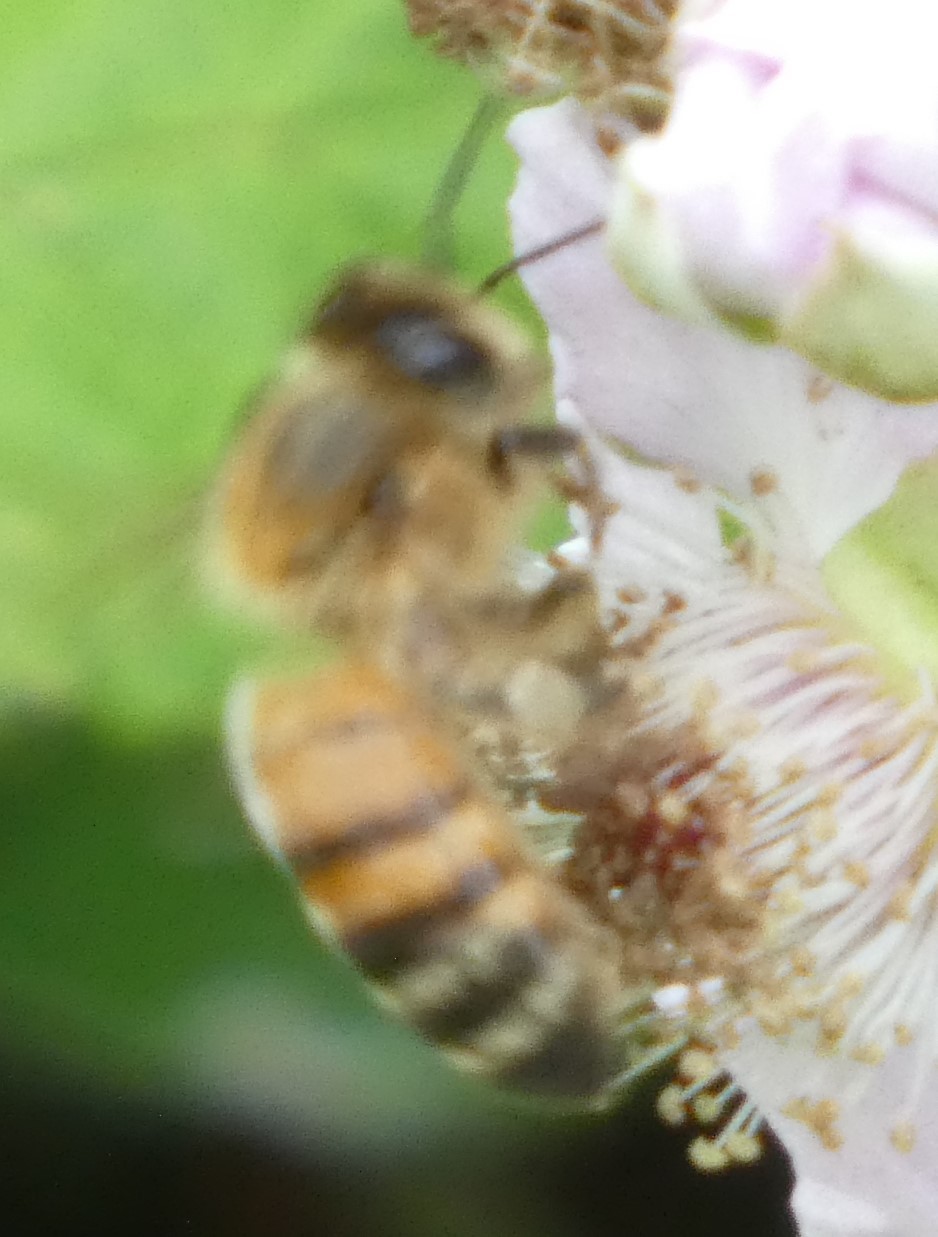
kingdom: Animalia
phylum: Arthropoda
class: Insecta
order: Hymenoptera
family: Apidae
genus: Apis
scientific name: Apis mellifera
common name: Honey bee
